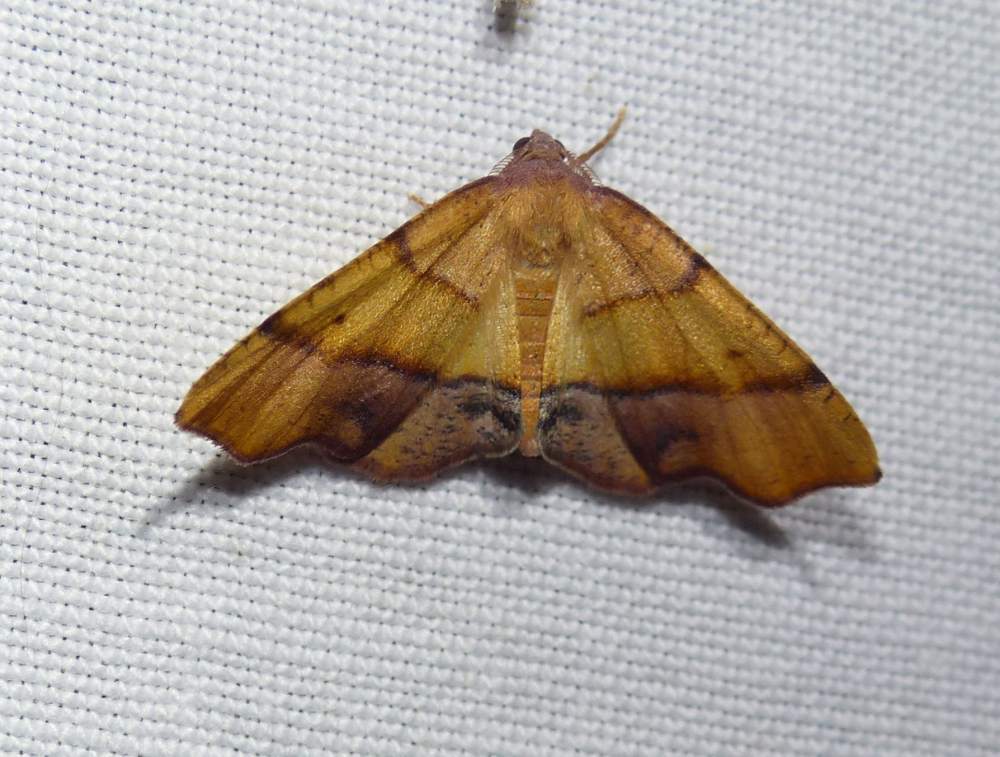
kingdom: Animalia
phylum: Arthropoda
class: Insecta
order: Lepidoptera
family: Geometridae
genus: Plagodis
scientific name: Plagodis phlogosaria
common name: Straight-lined plagodis
